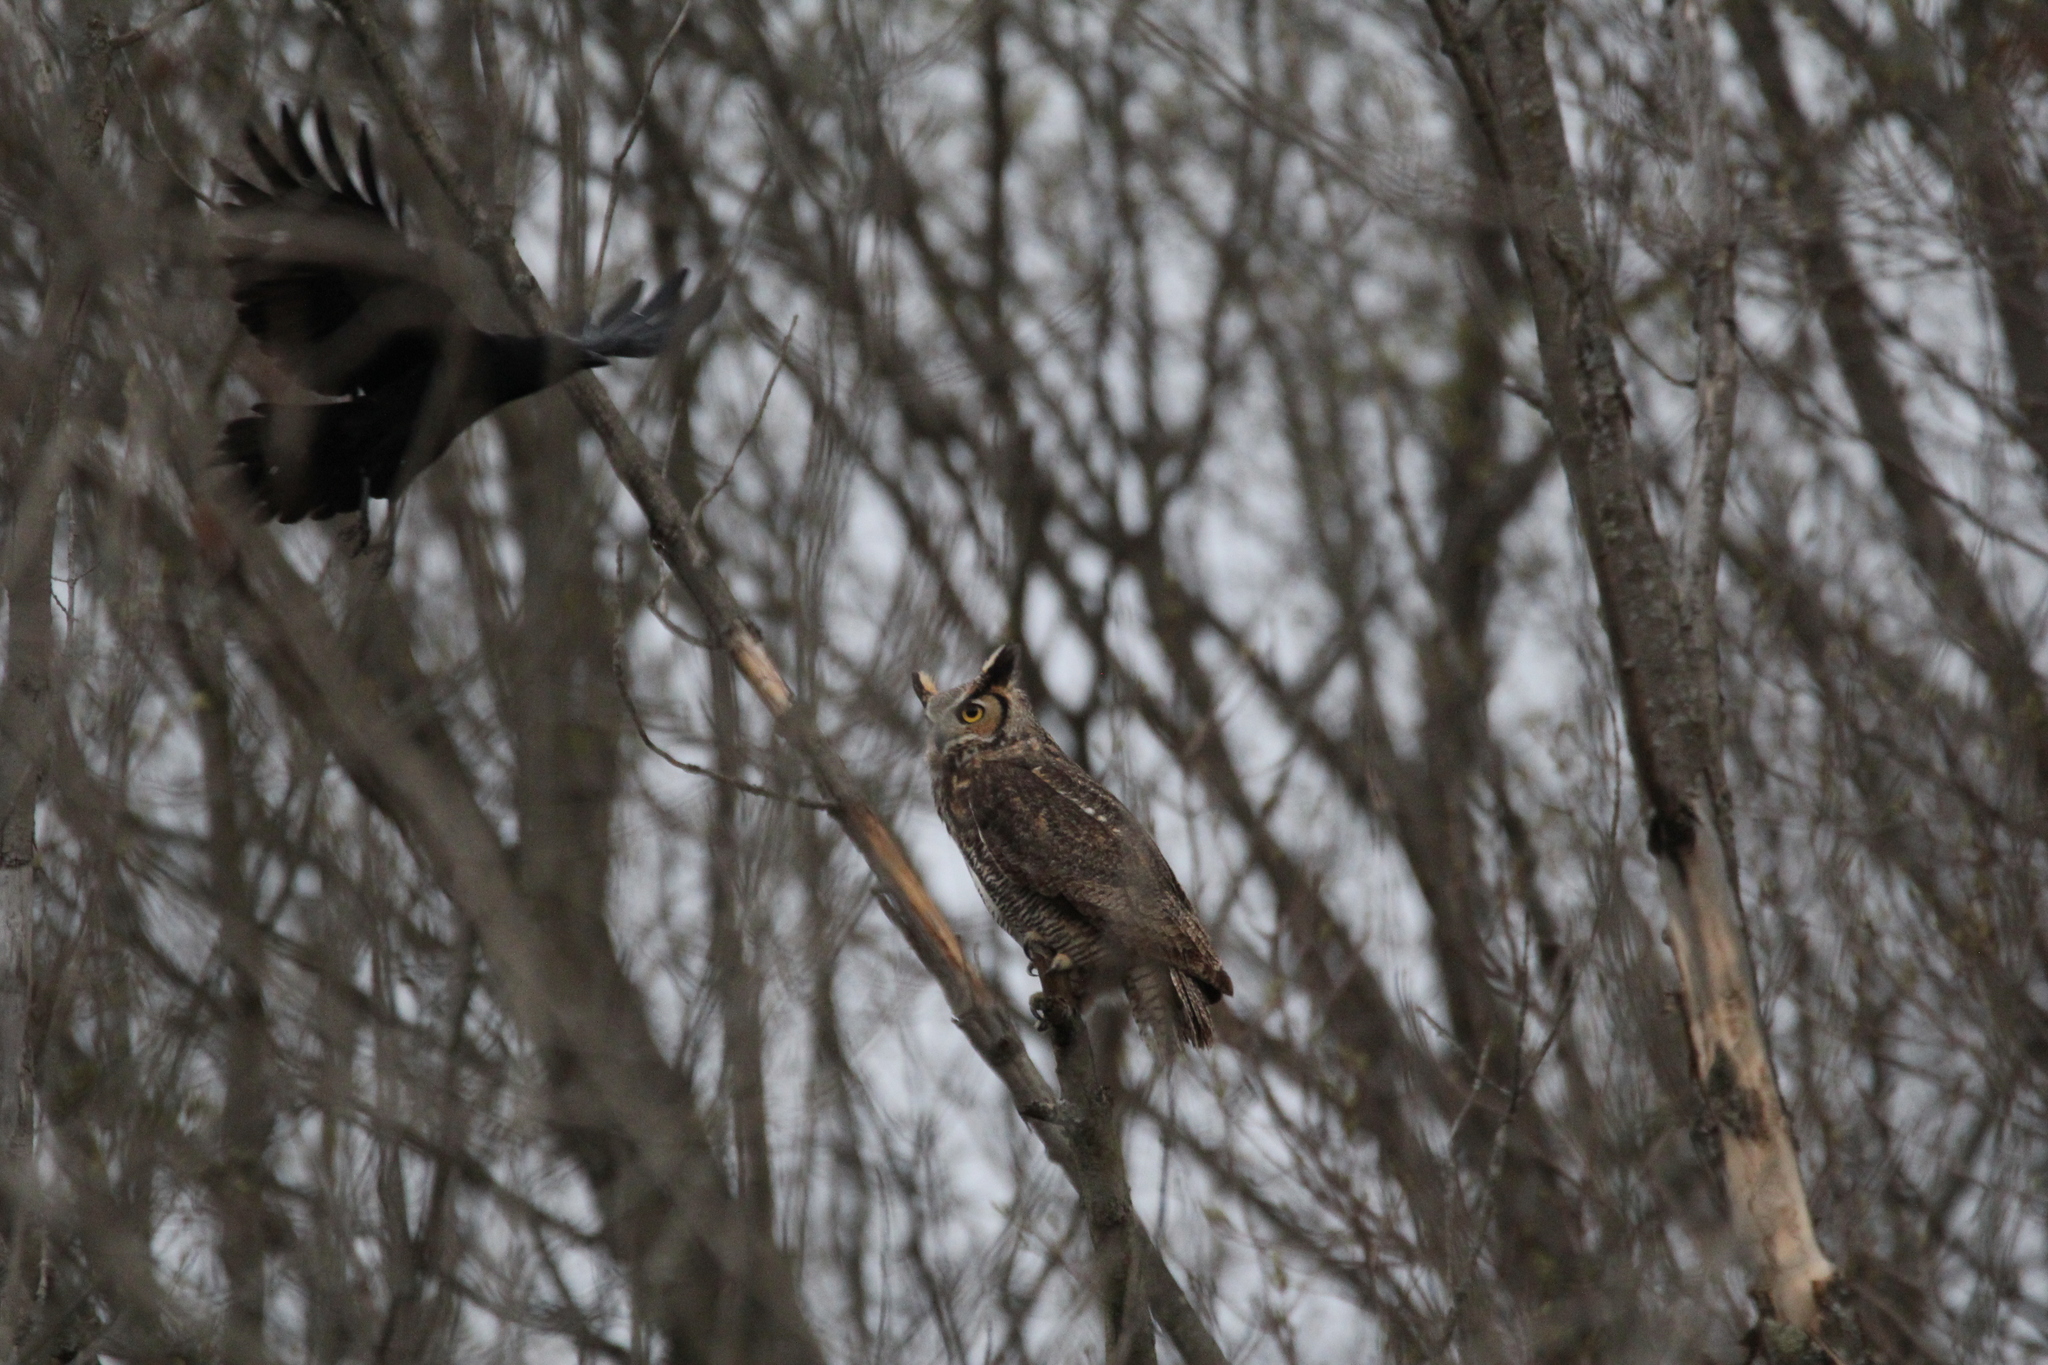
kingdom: Animalia
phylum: Chordata
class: Aves
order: Strigiformes
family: Strigidae
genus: Bubo
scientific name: Bubo virginianus
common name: Great horned owl
